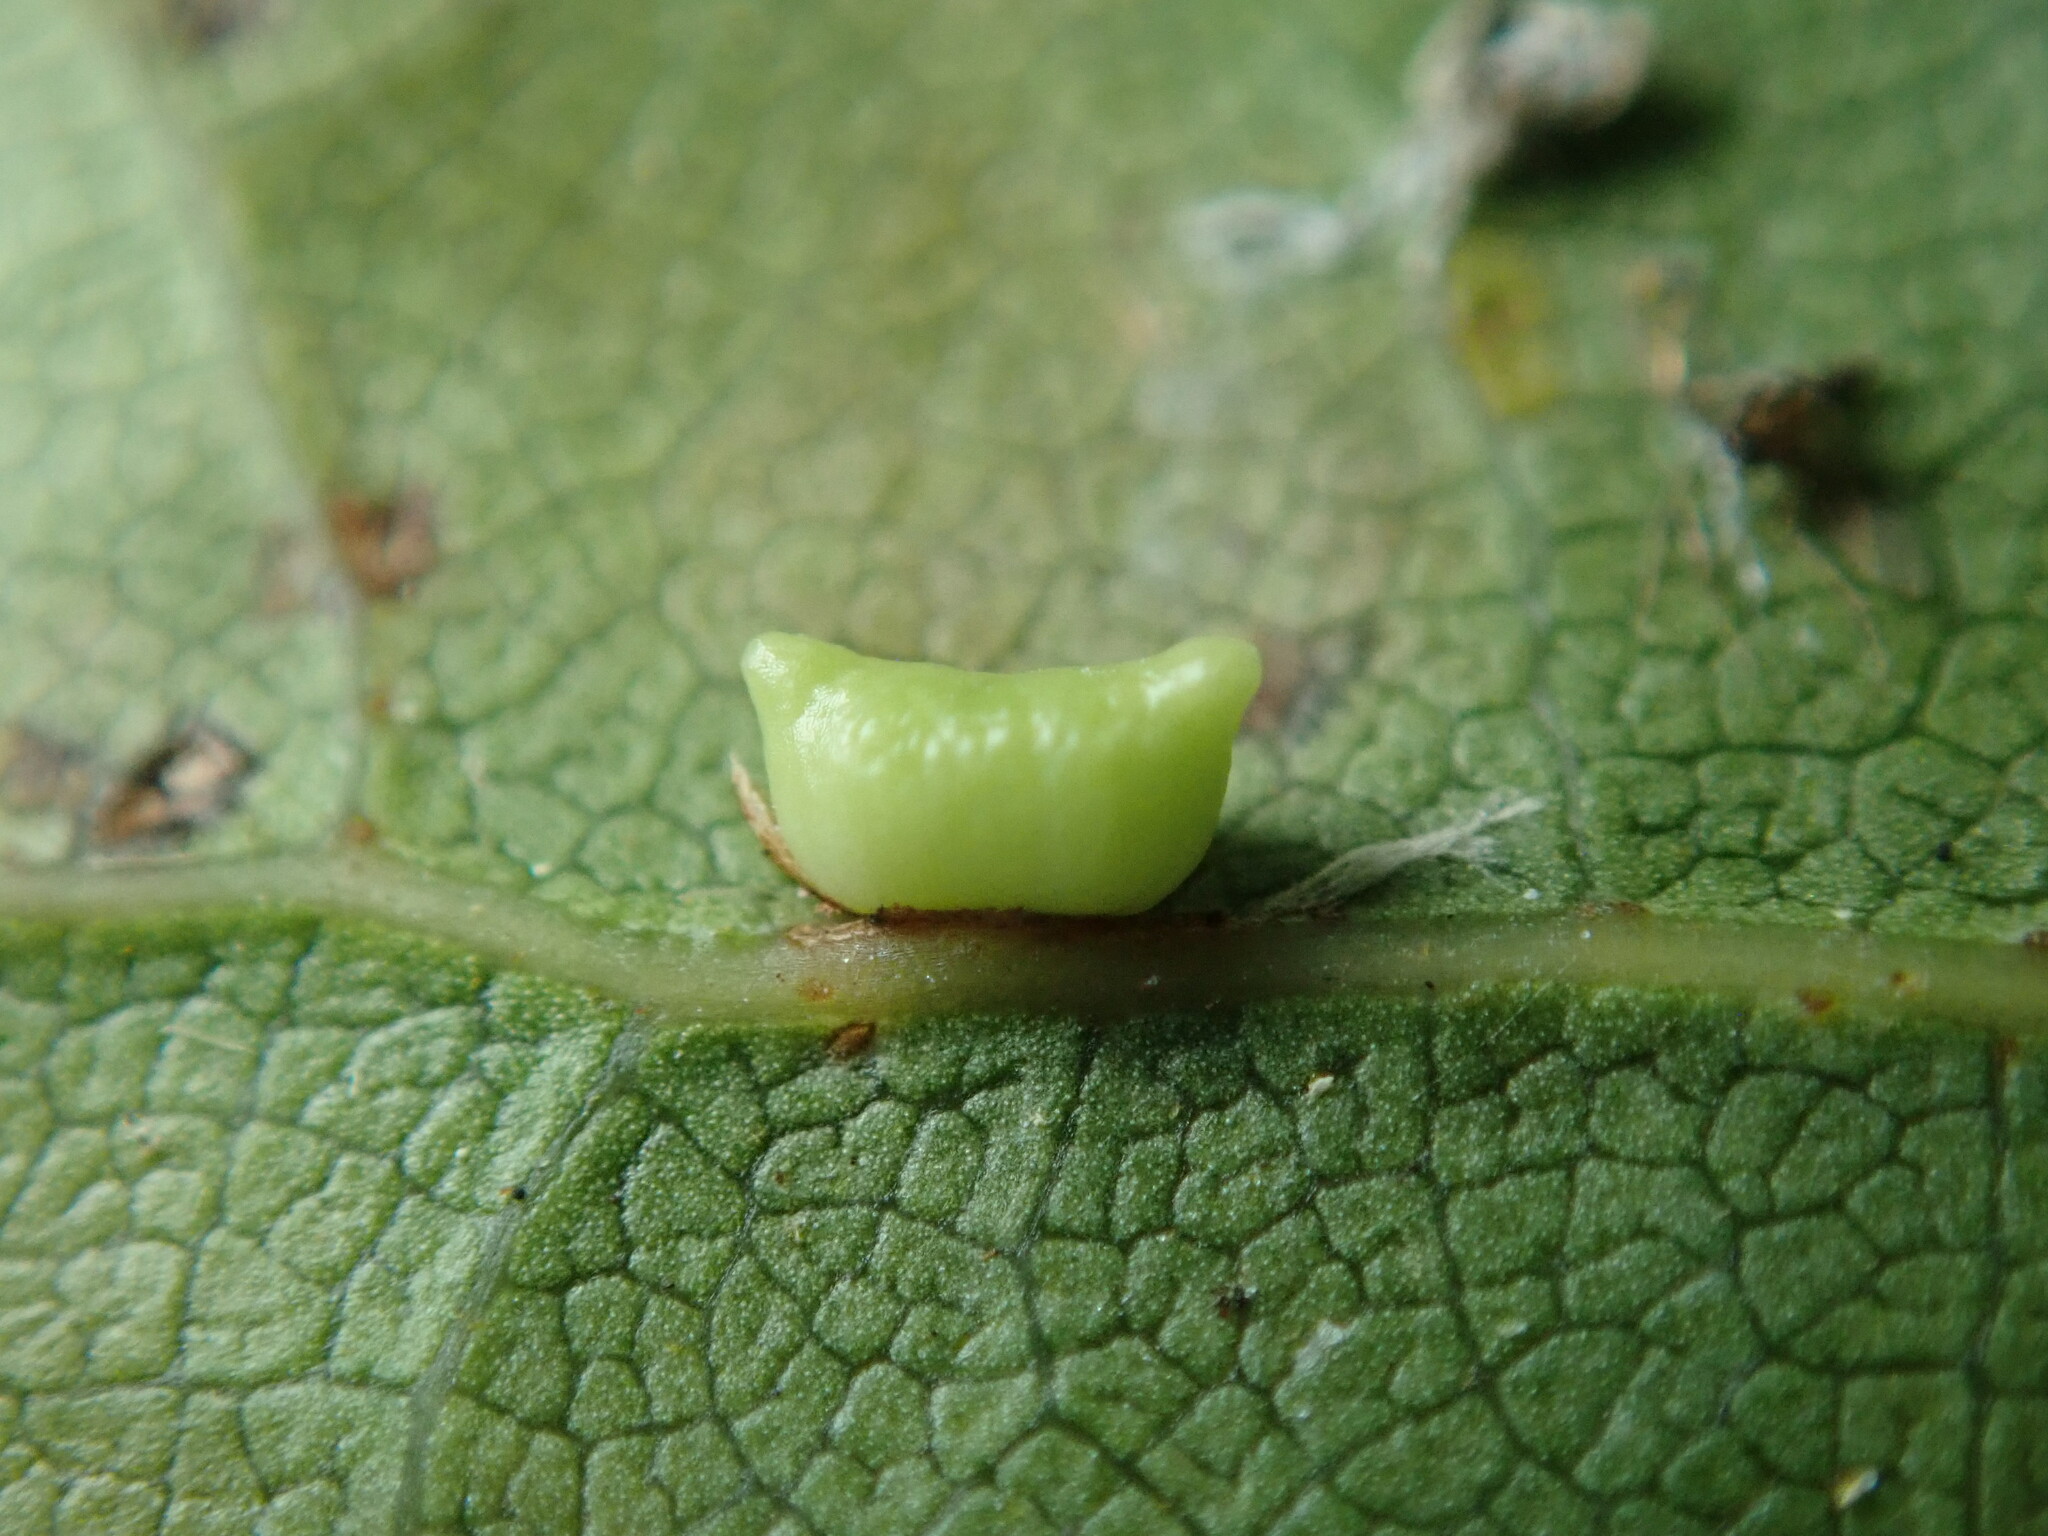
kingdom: Animalia
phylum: Arthropoda
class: Insecta
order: Hymenoptera
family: Cynipidae
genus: Dryocosmus
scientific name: Dryocosmus
